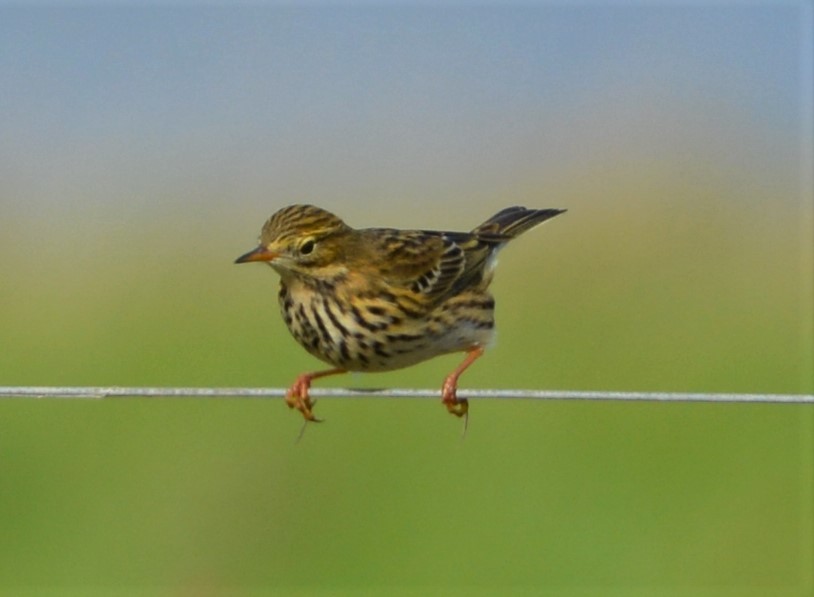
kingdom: Animalia
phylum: Chordata
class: Aves
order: Passeriformes
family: Motacillidae
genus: Anthus
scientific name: Anthus pratensis
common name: Meadow pipit
